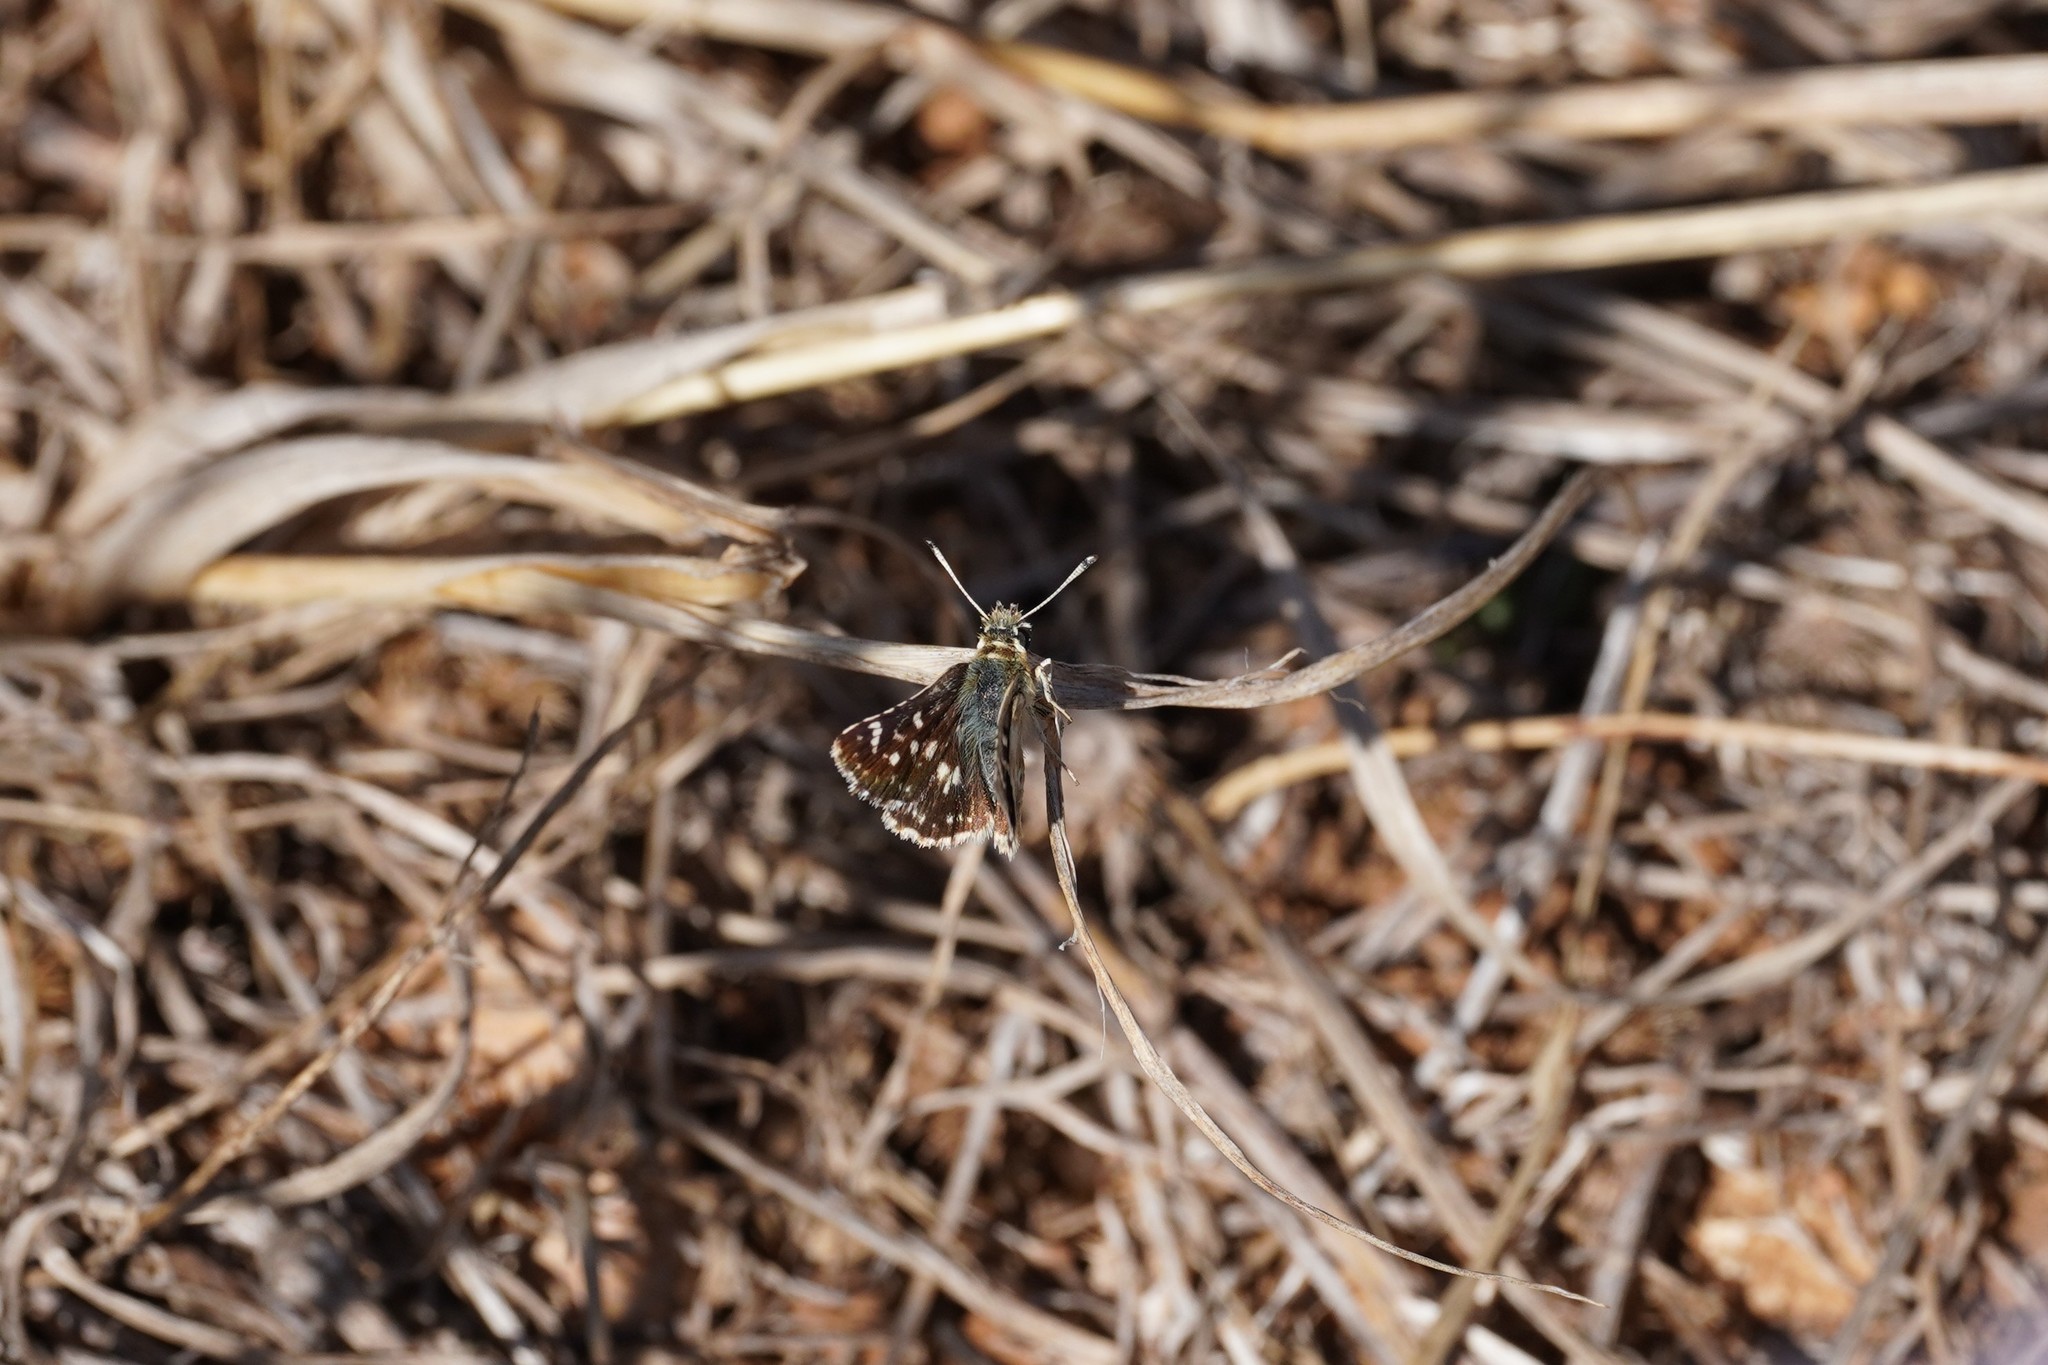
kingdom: Animalia
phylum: Arthropoda
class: Insecta
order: Lepidoptera
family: Hesperiidae
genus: Spialia
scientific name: Spialia sertorius
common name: Red underwing skipper
